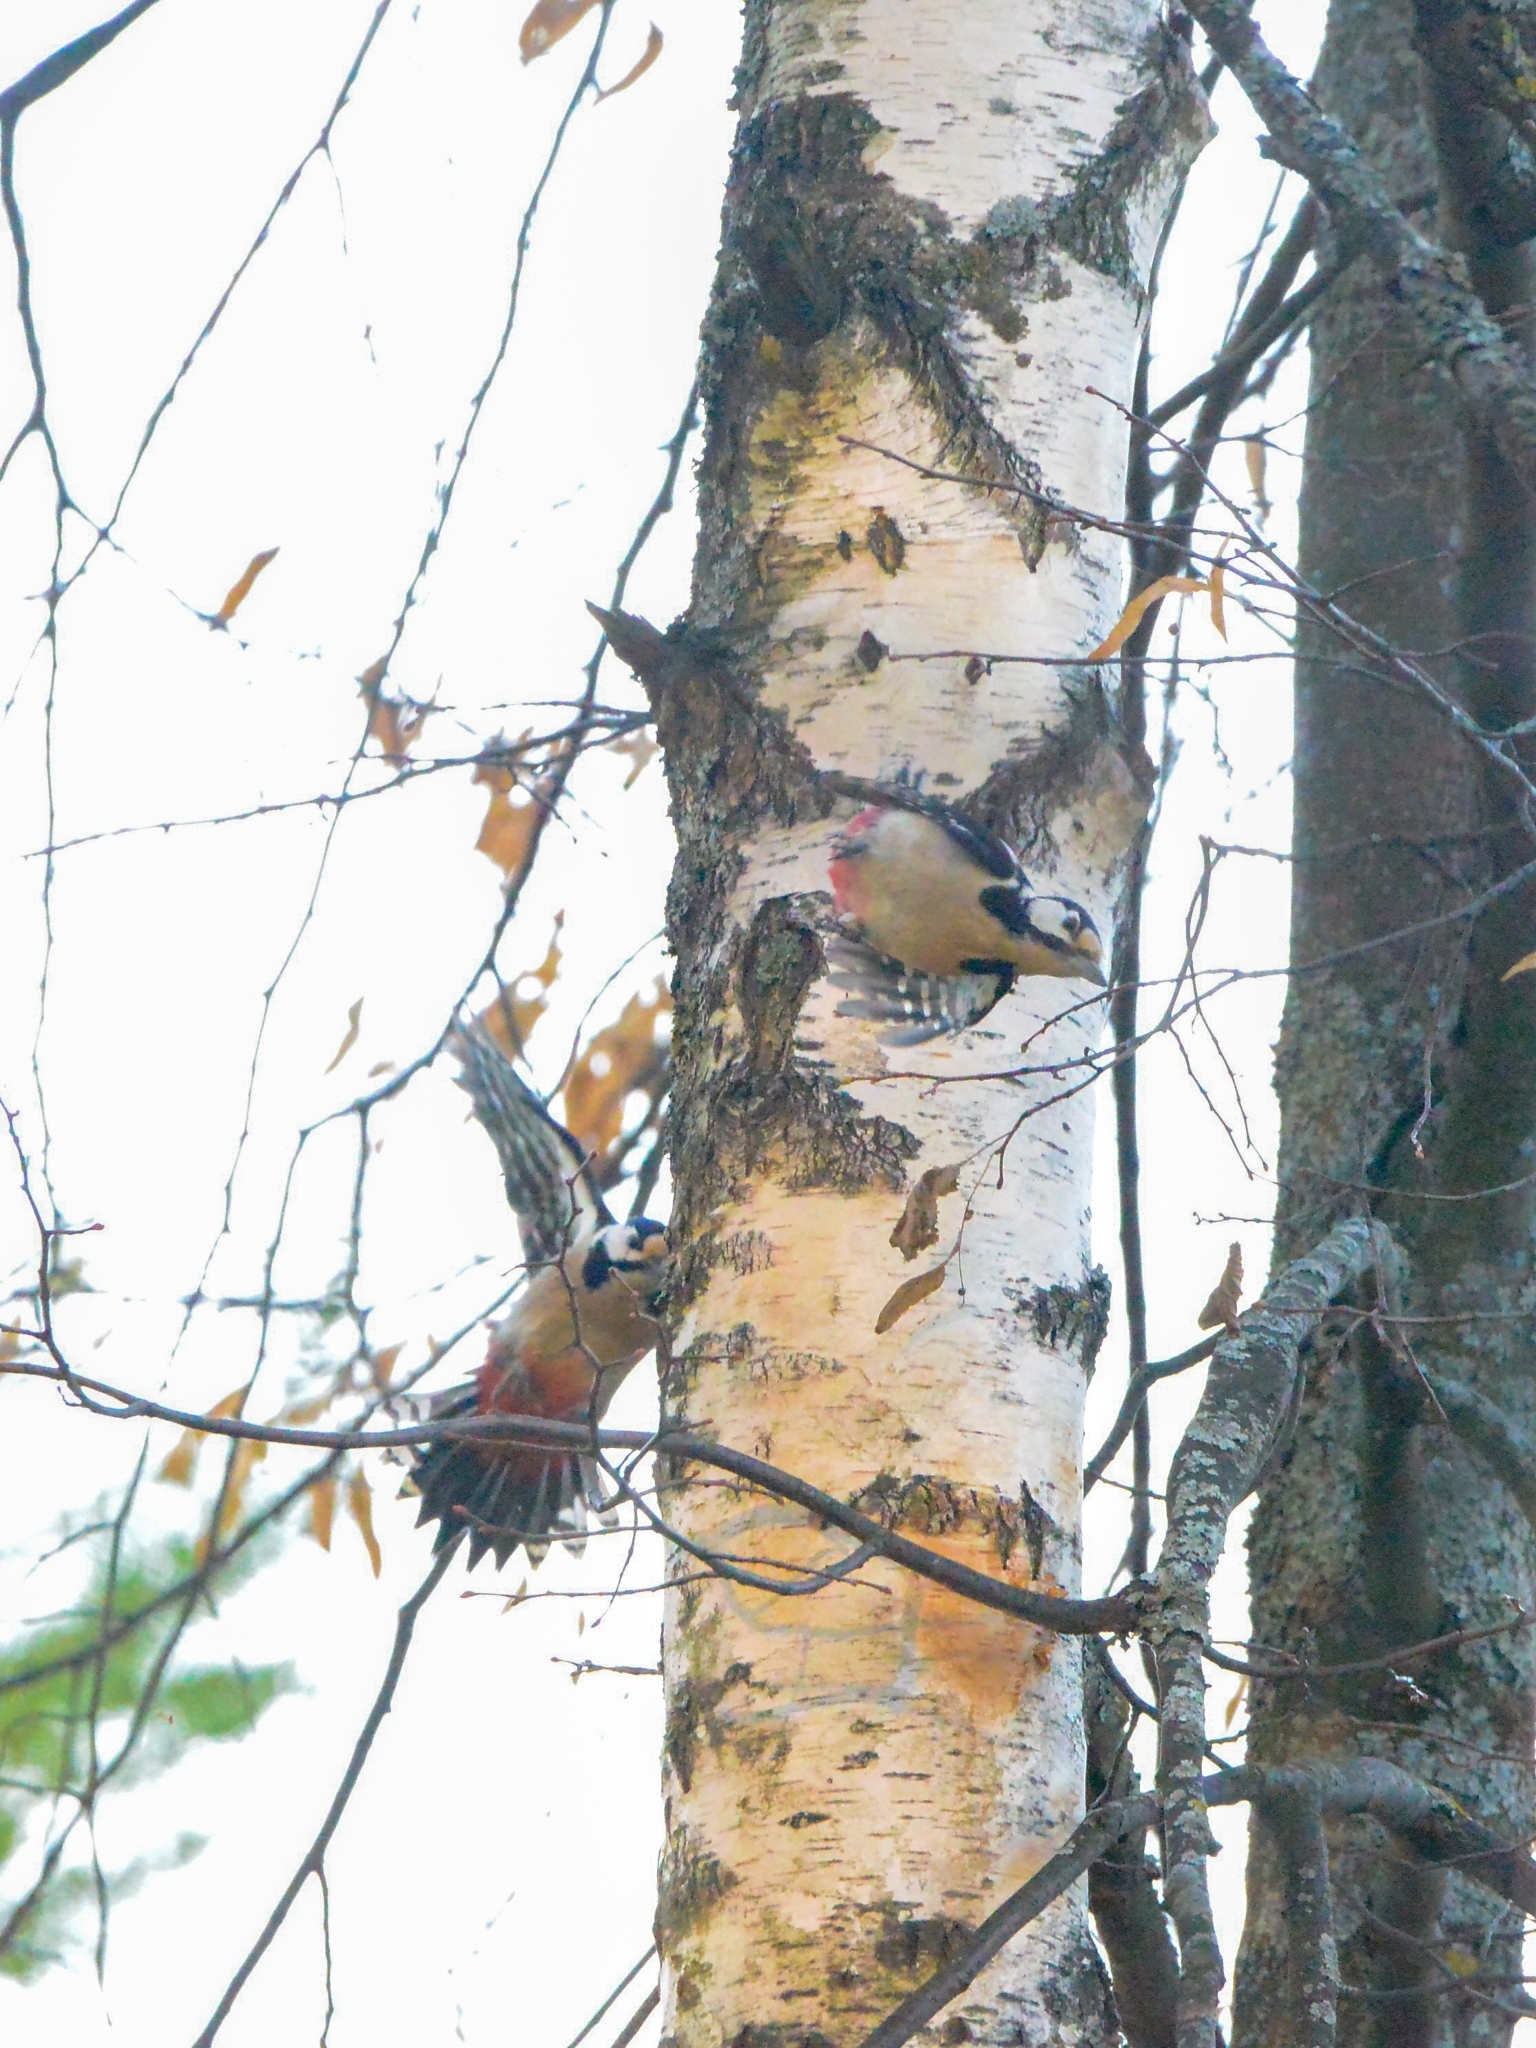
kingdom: Animalia
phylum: Chordata
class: Aves
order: Piciformes
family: Picidae
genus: Dendrocopos
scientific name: Dendrocopos major
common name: Great spotted woodpecker
